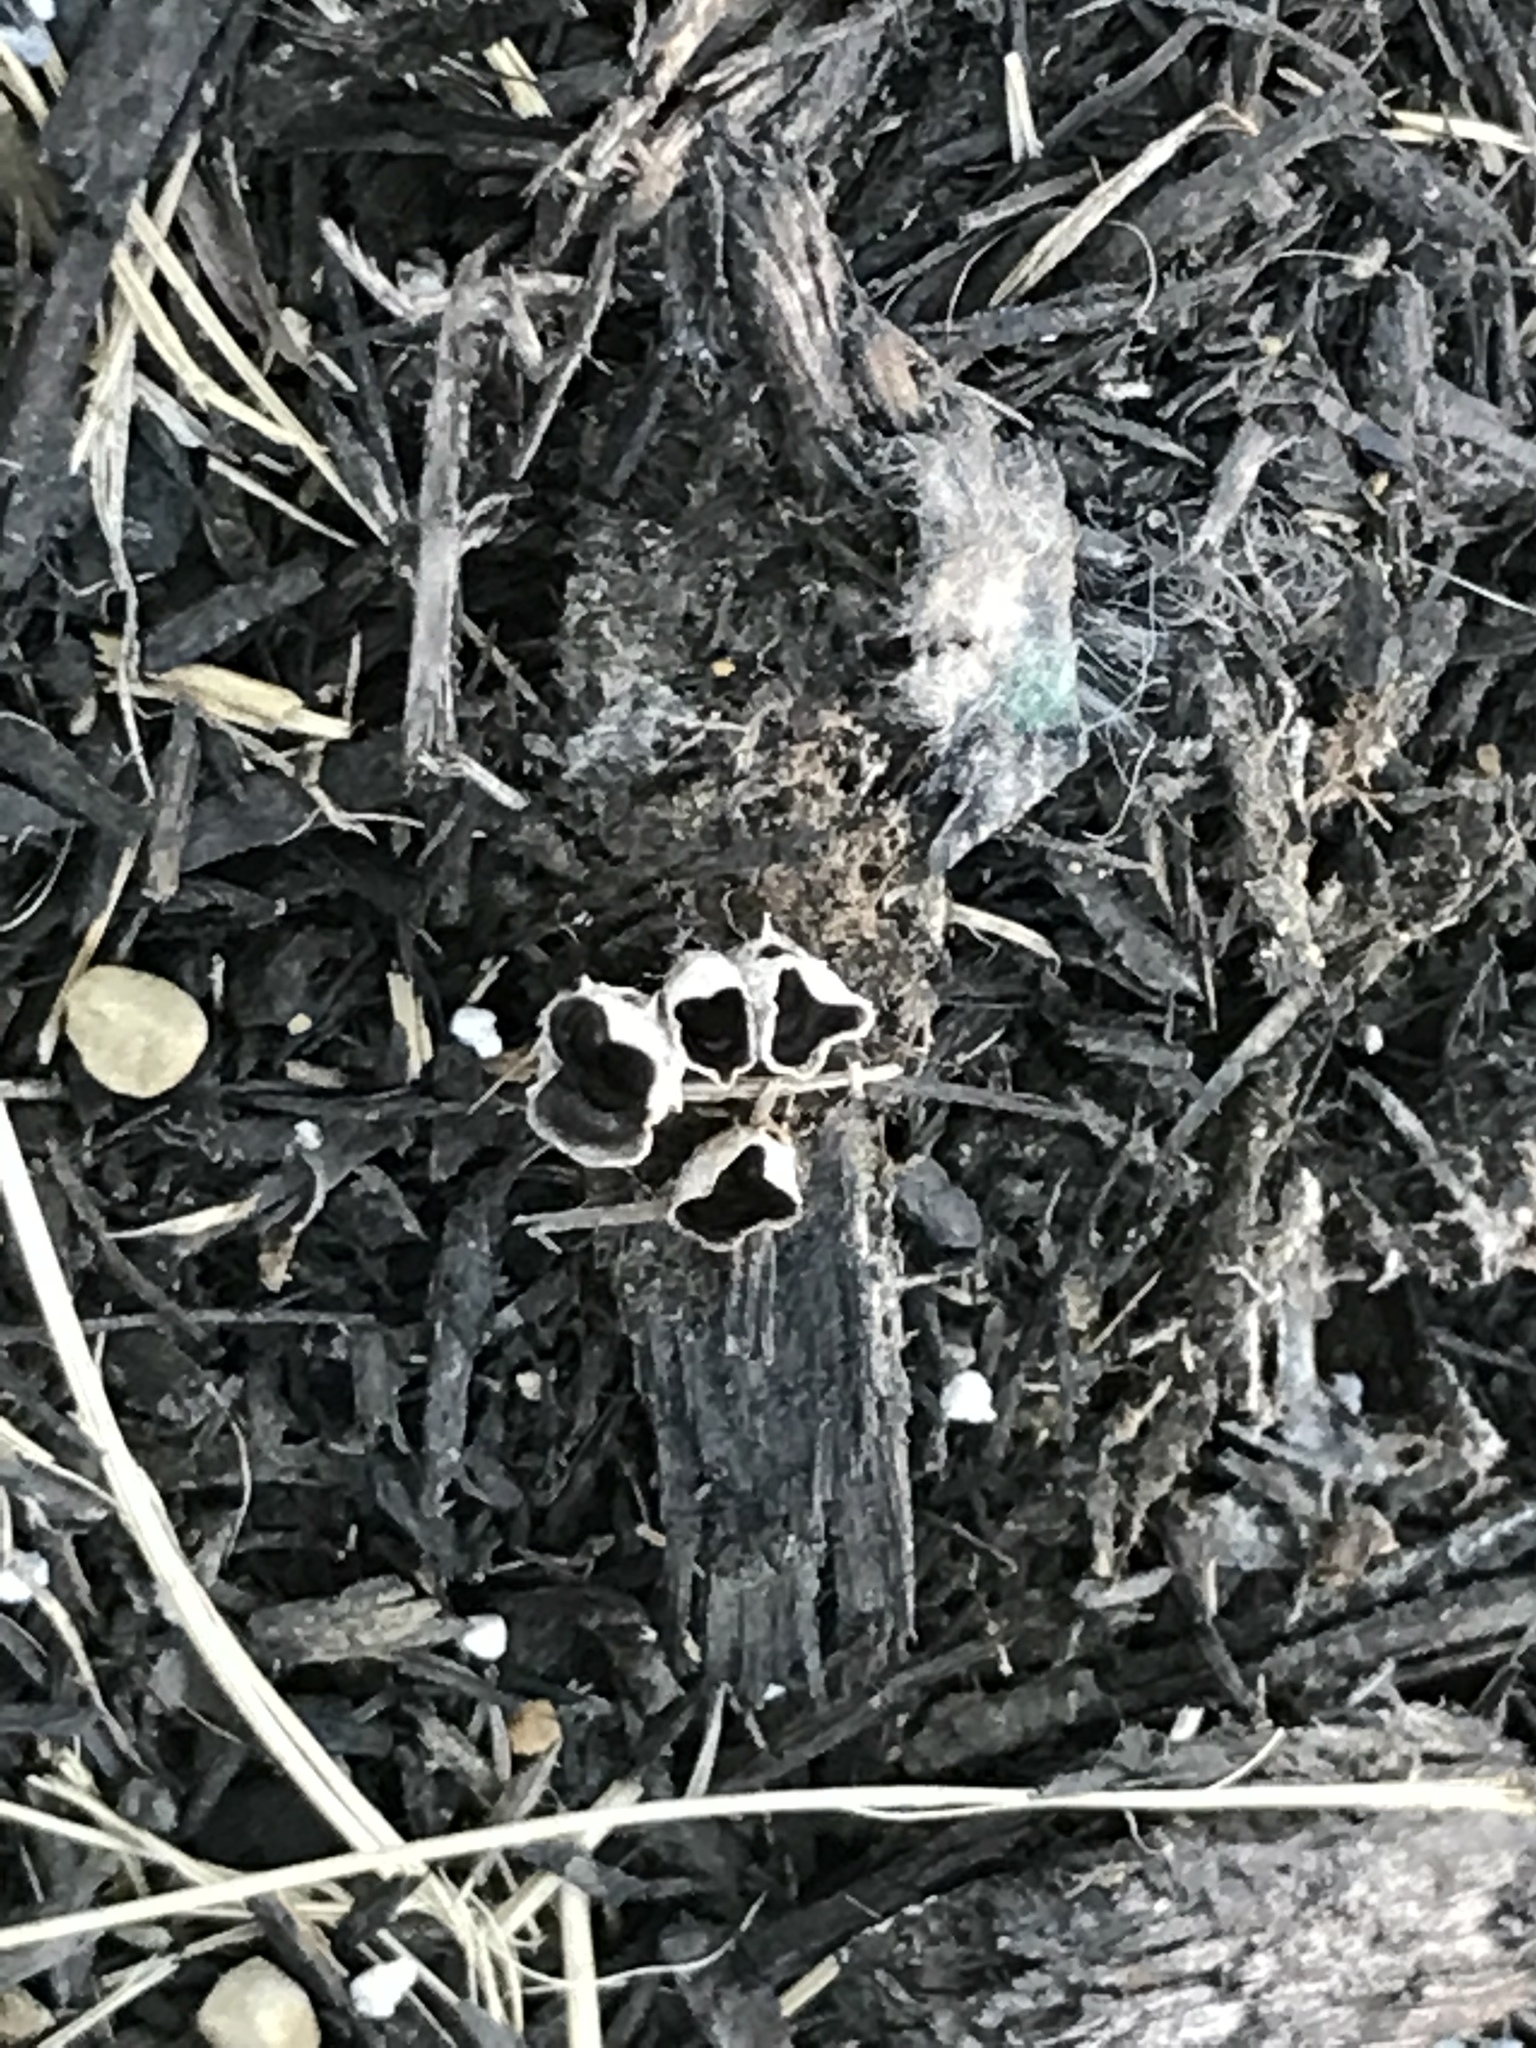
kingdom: Fungi
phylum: Basidiomycota
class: Agaricomycetes
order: Agaricales
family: Agaricaceae
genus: Cyathus
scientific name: Cyathus stercoreus
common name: Dung bird's nest
